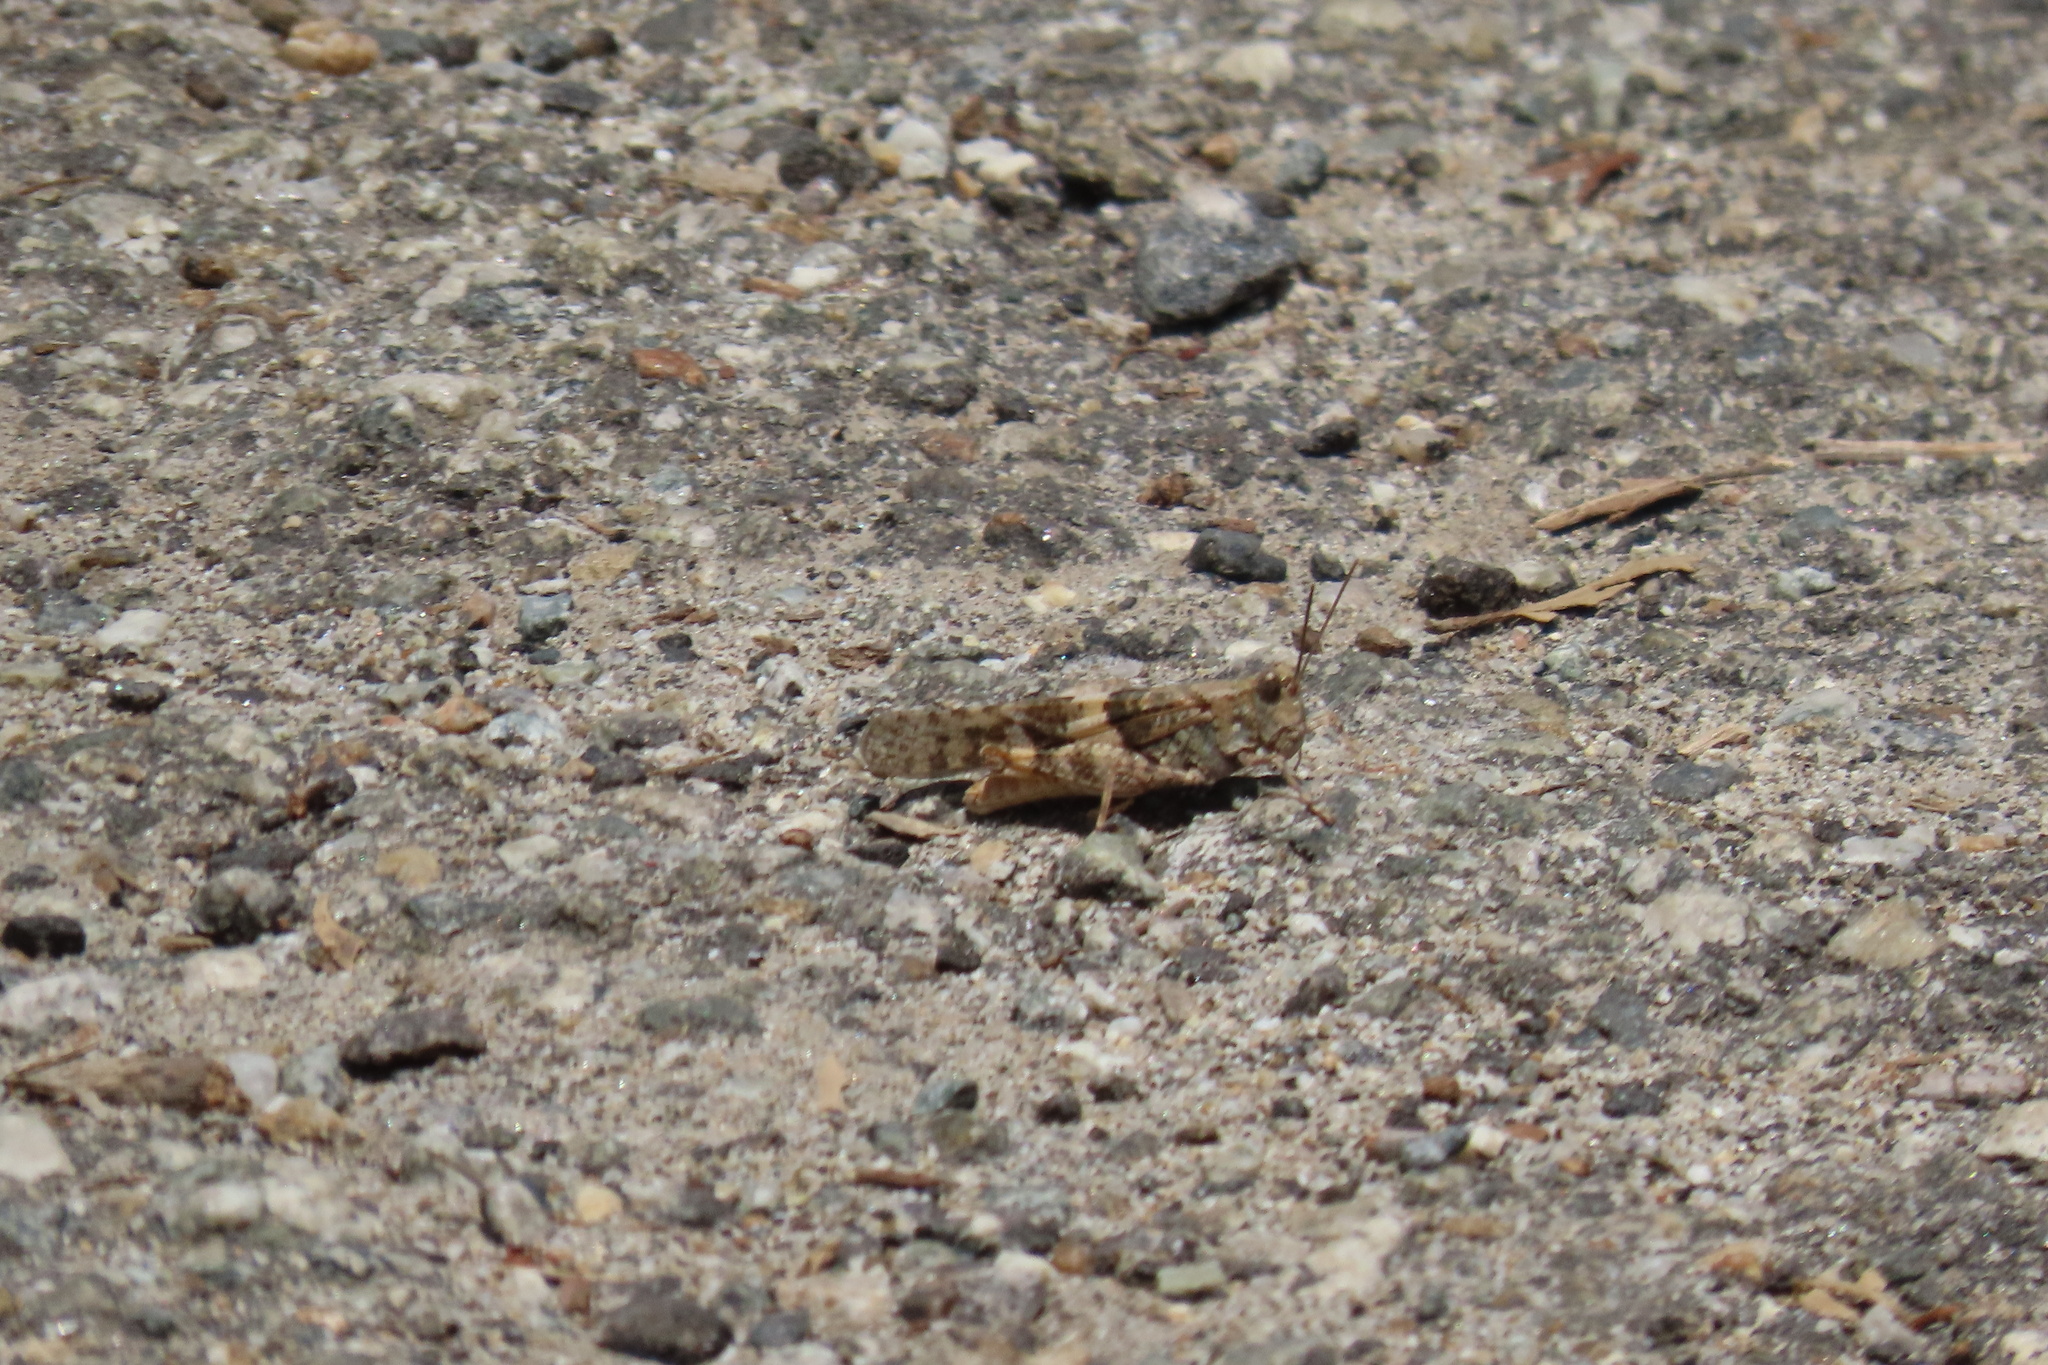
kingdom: Animalia
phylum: Arthropoda
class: Insecta
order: Orthoptera
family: Acrididae
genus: Trimerotropis
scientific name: Trimerotropis pallidipennis
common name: Pallid-winged grasshopper
